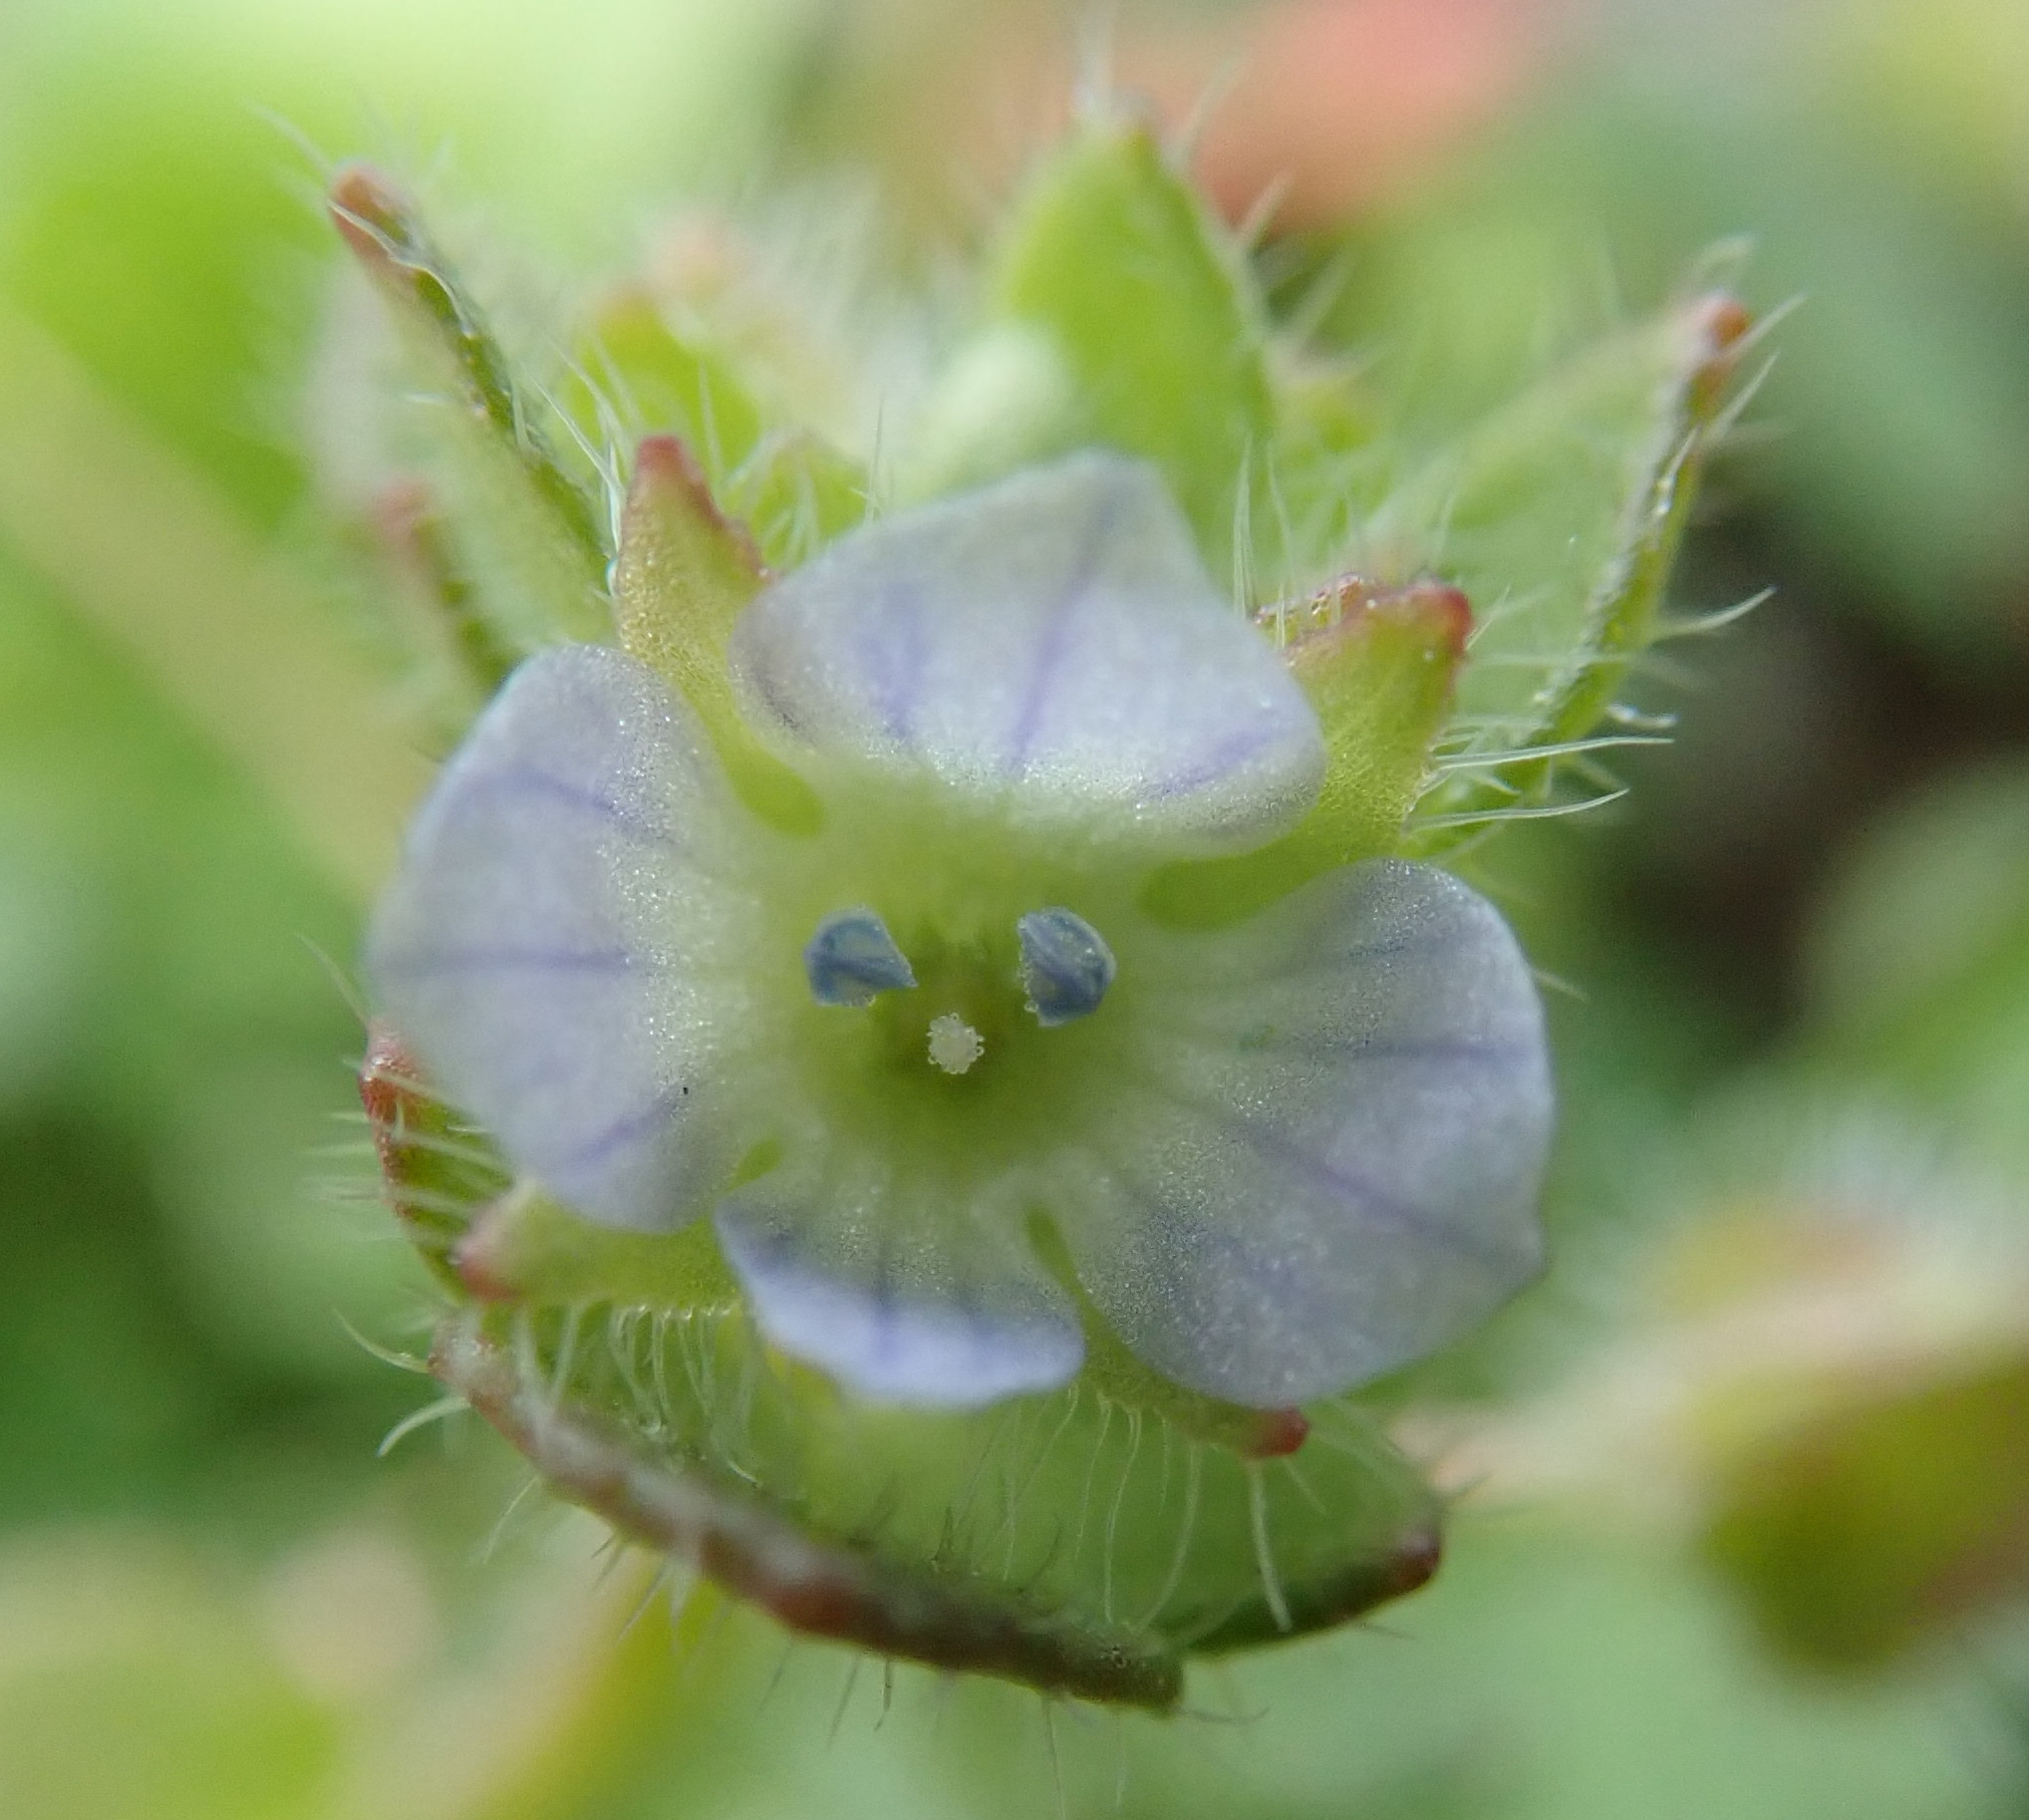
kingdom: Plantae
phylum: Tracheophyta
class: Magnoliopsida
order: Lamiales
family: Plantaginaceae
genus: Veronica
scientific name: Veronica hederifolia
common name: Ivy-leaved speedwell
